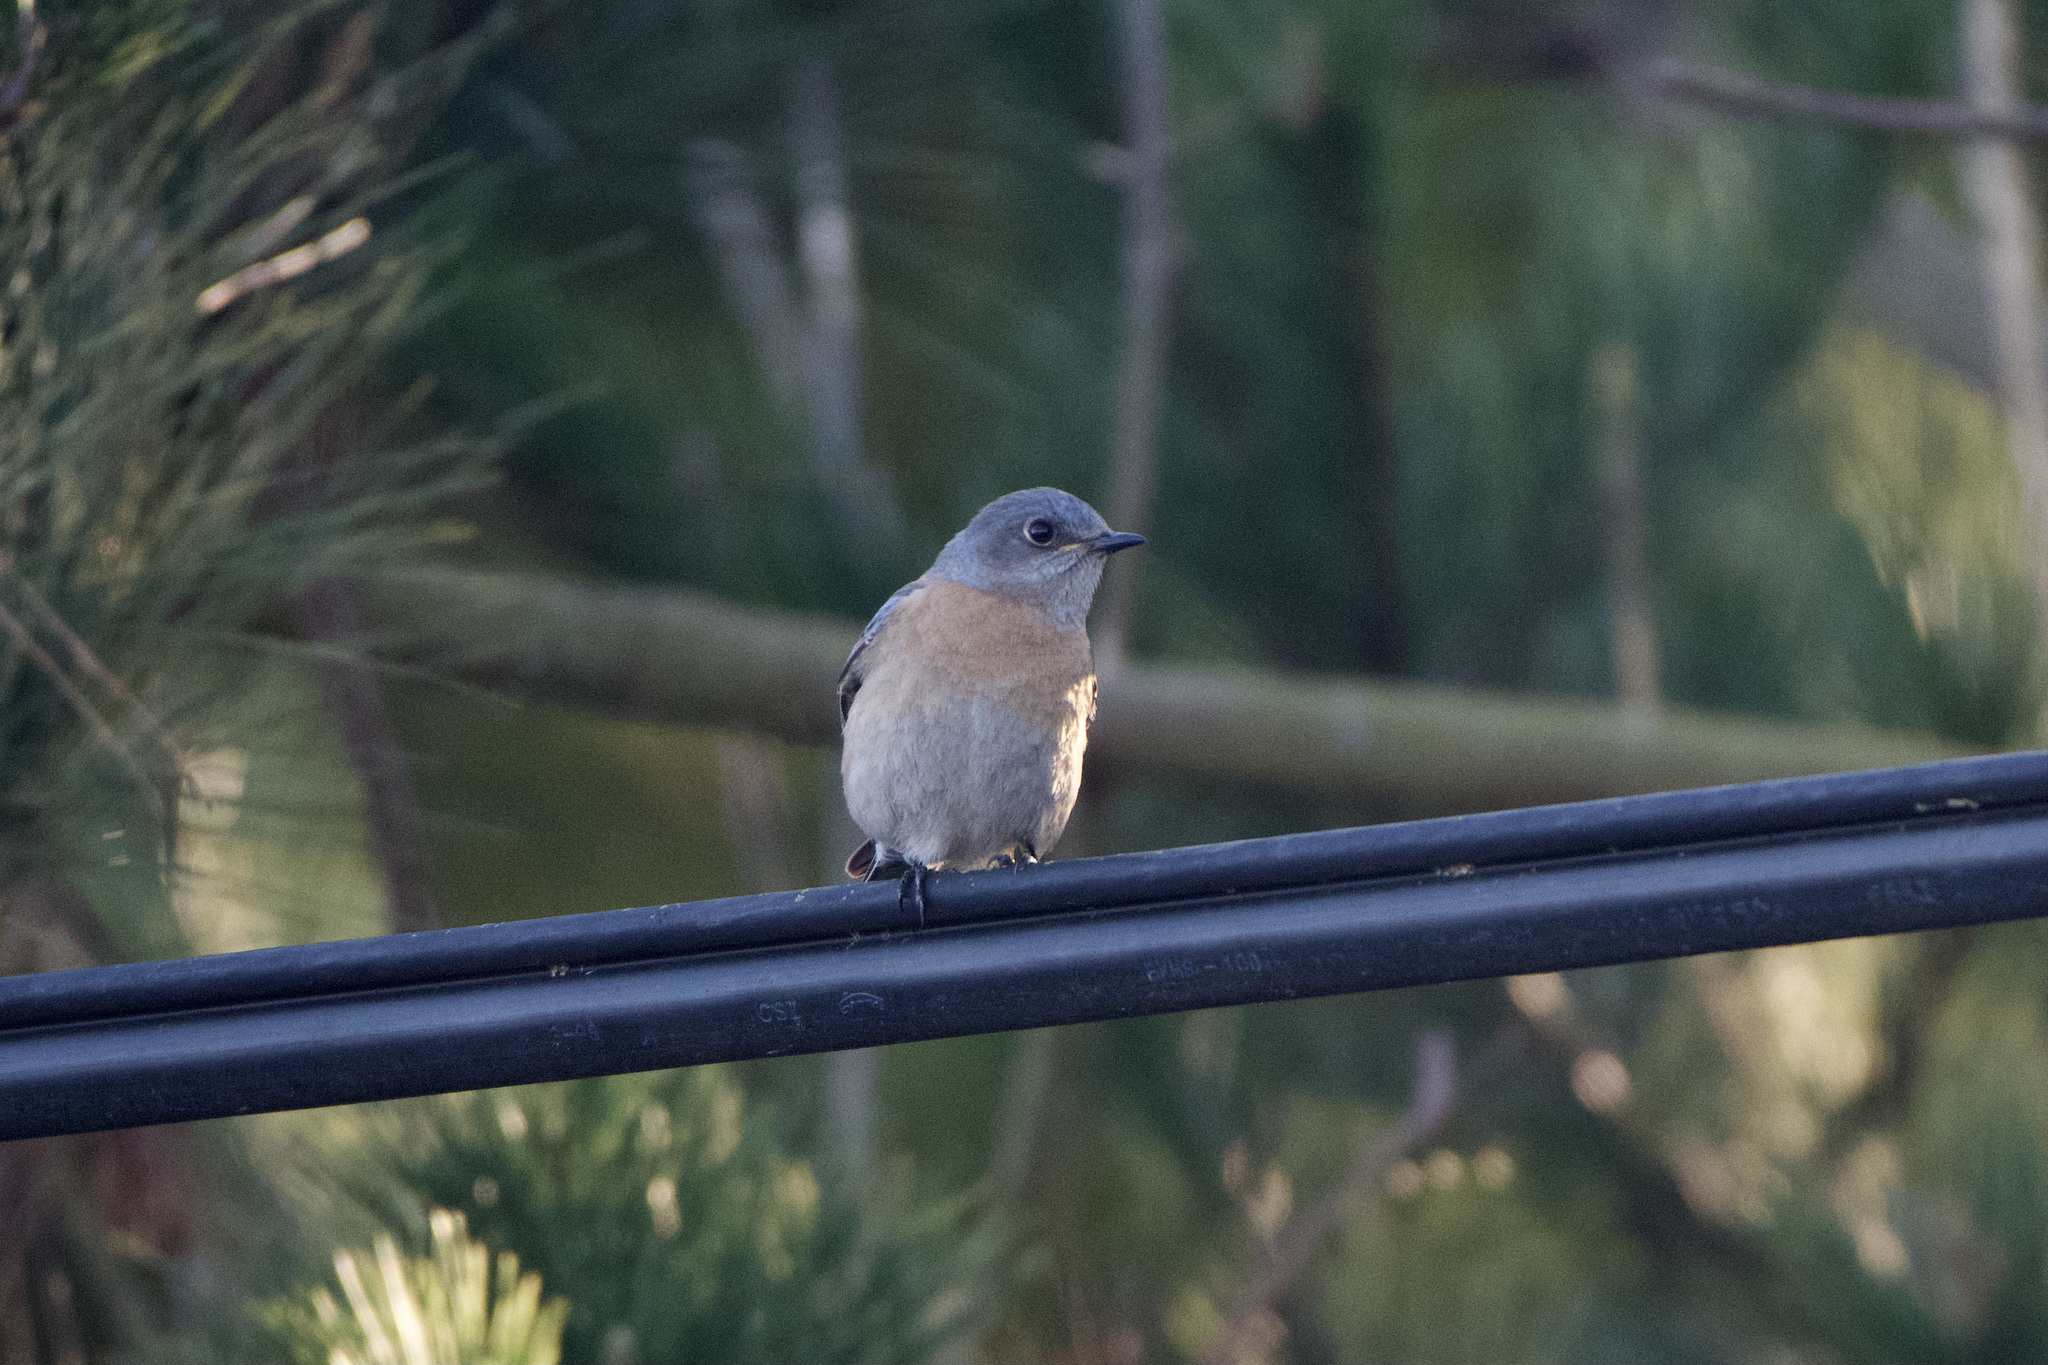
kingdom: Animalia
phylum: Chordata
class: Aves
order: Passeriformes
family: Turdidae
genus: Sialia
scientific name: Sialia mexicana
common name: Western bluebird
